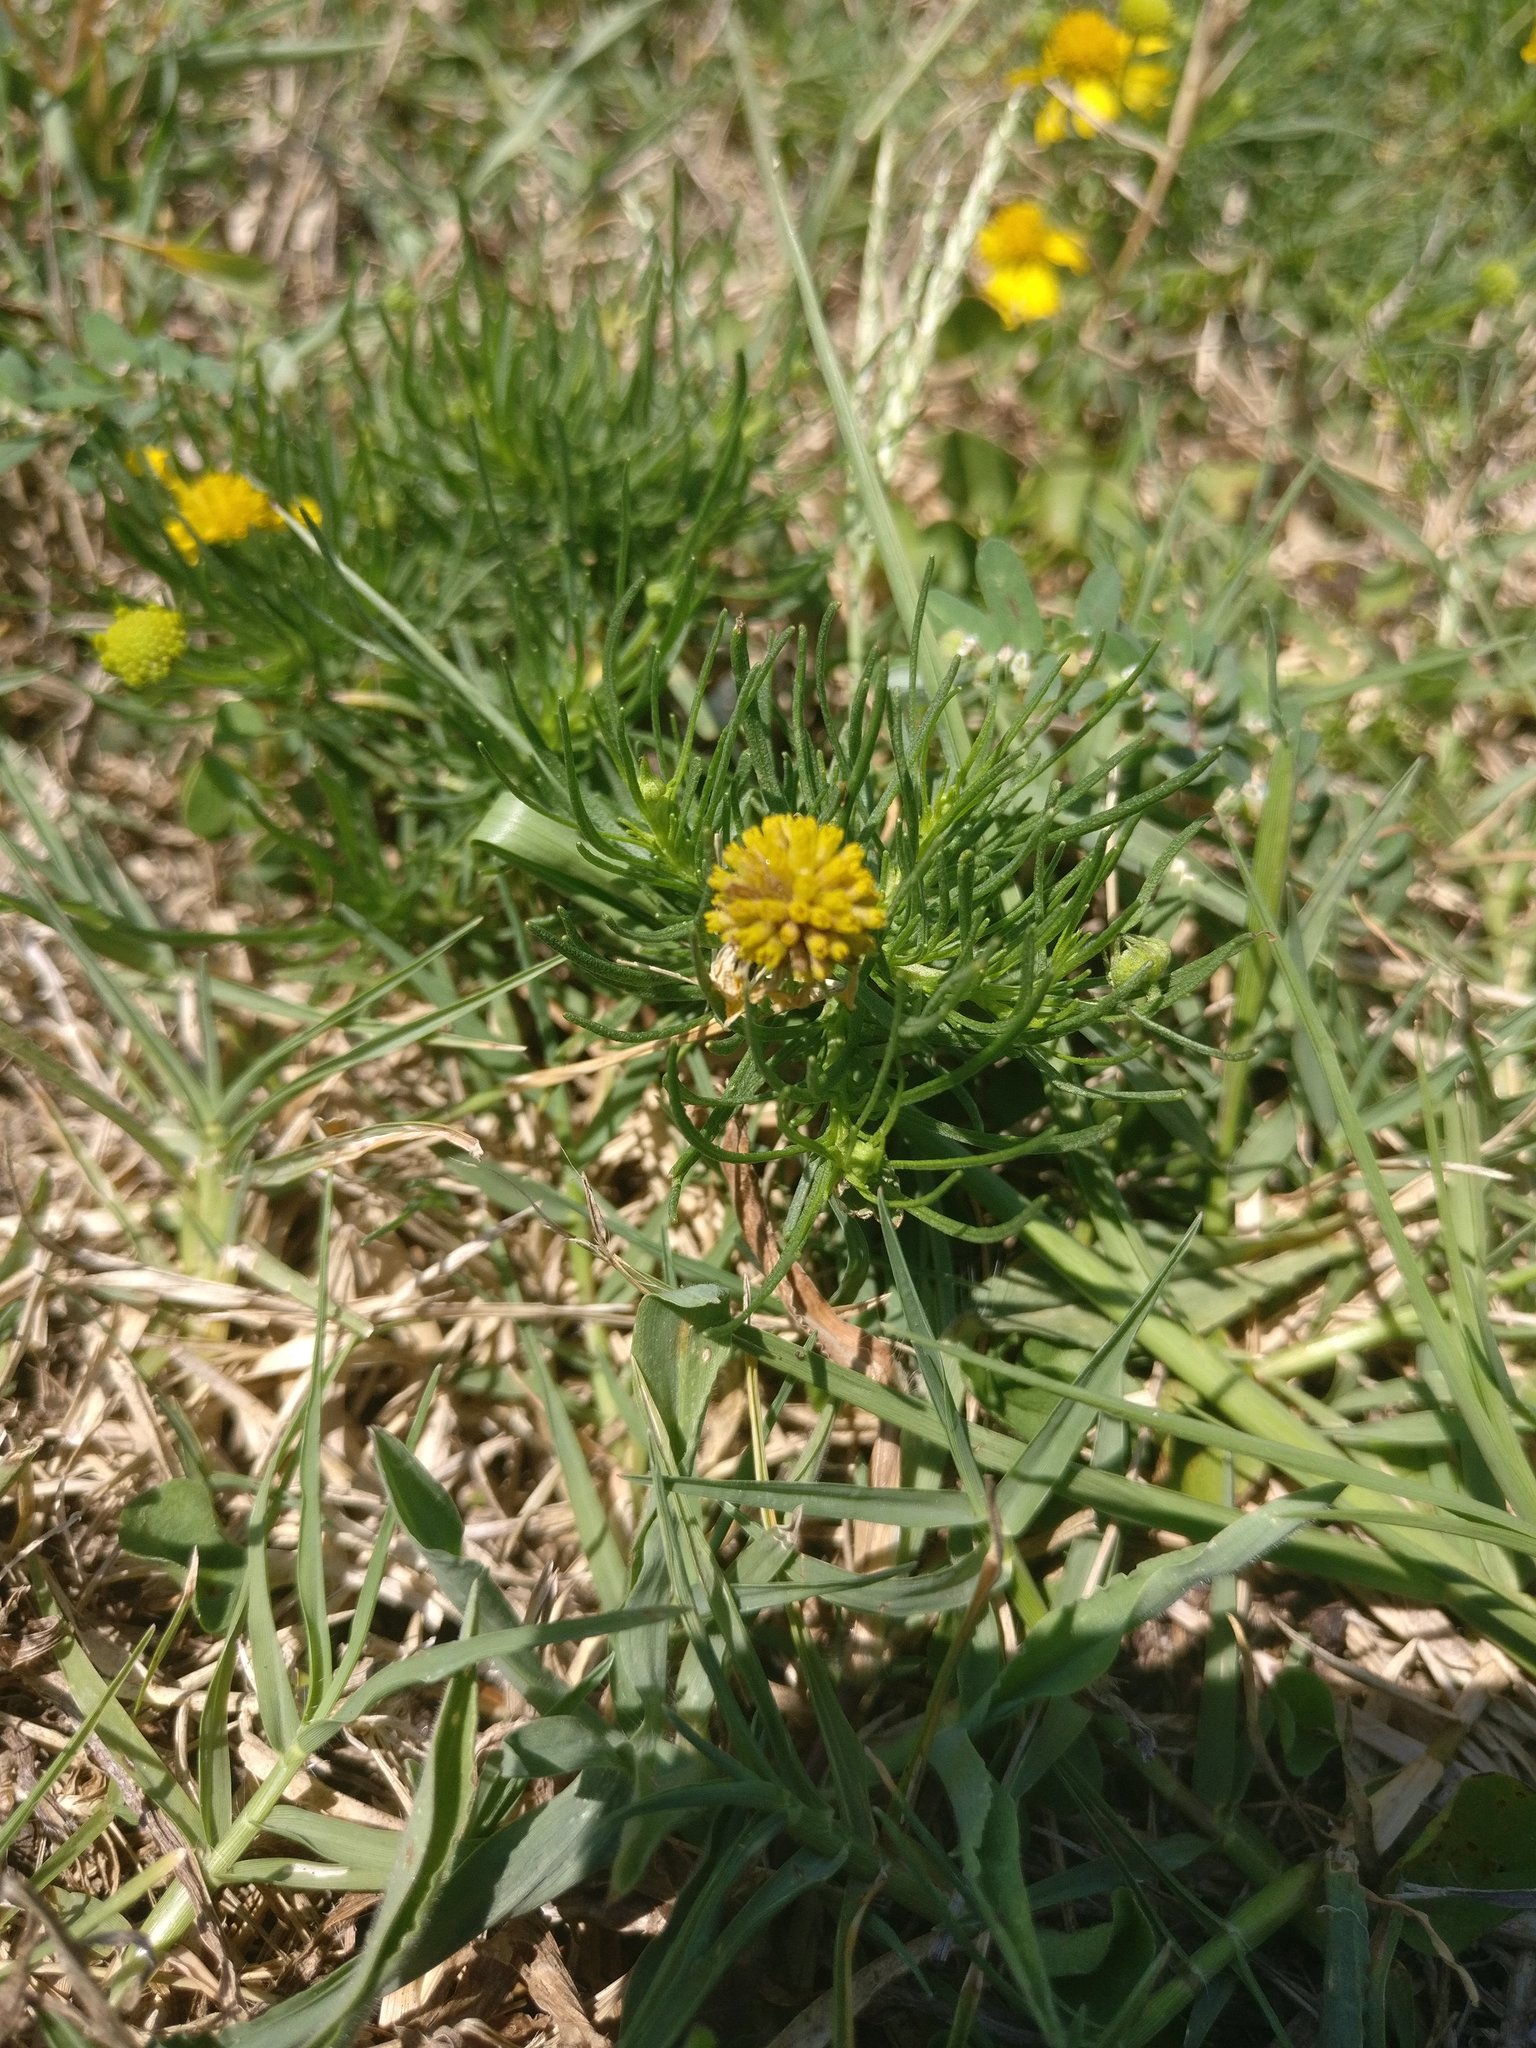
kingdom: Plantae
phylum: Tracheophyta
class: Magnoliopsida
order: Asterales
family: Asteraceae
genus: Helenium
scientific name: Helenium amarum
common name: Bitter sneezeweed
